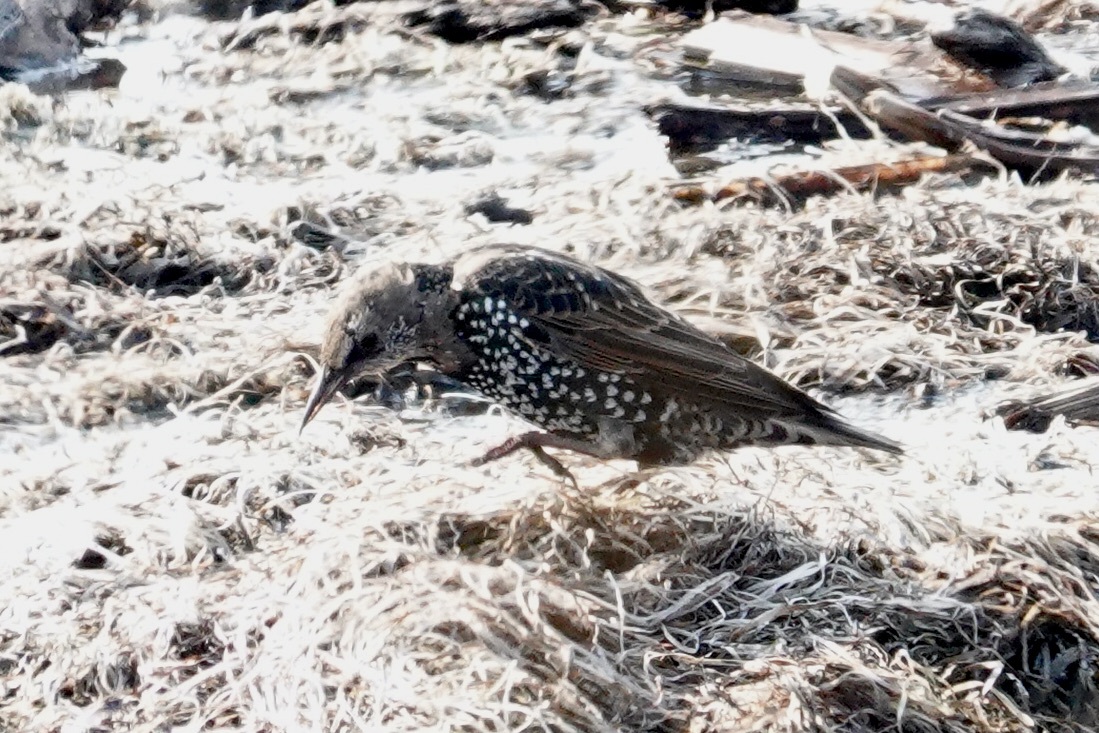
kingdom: Animalia
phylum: Chordata
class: Aves
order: Passeriformes
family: Sturnidae
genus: Sturnus
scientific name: Sturnus vulgaris
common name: Common starling
